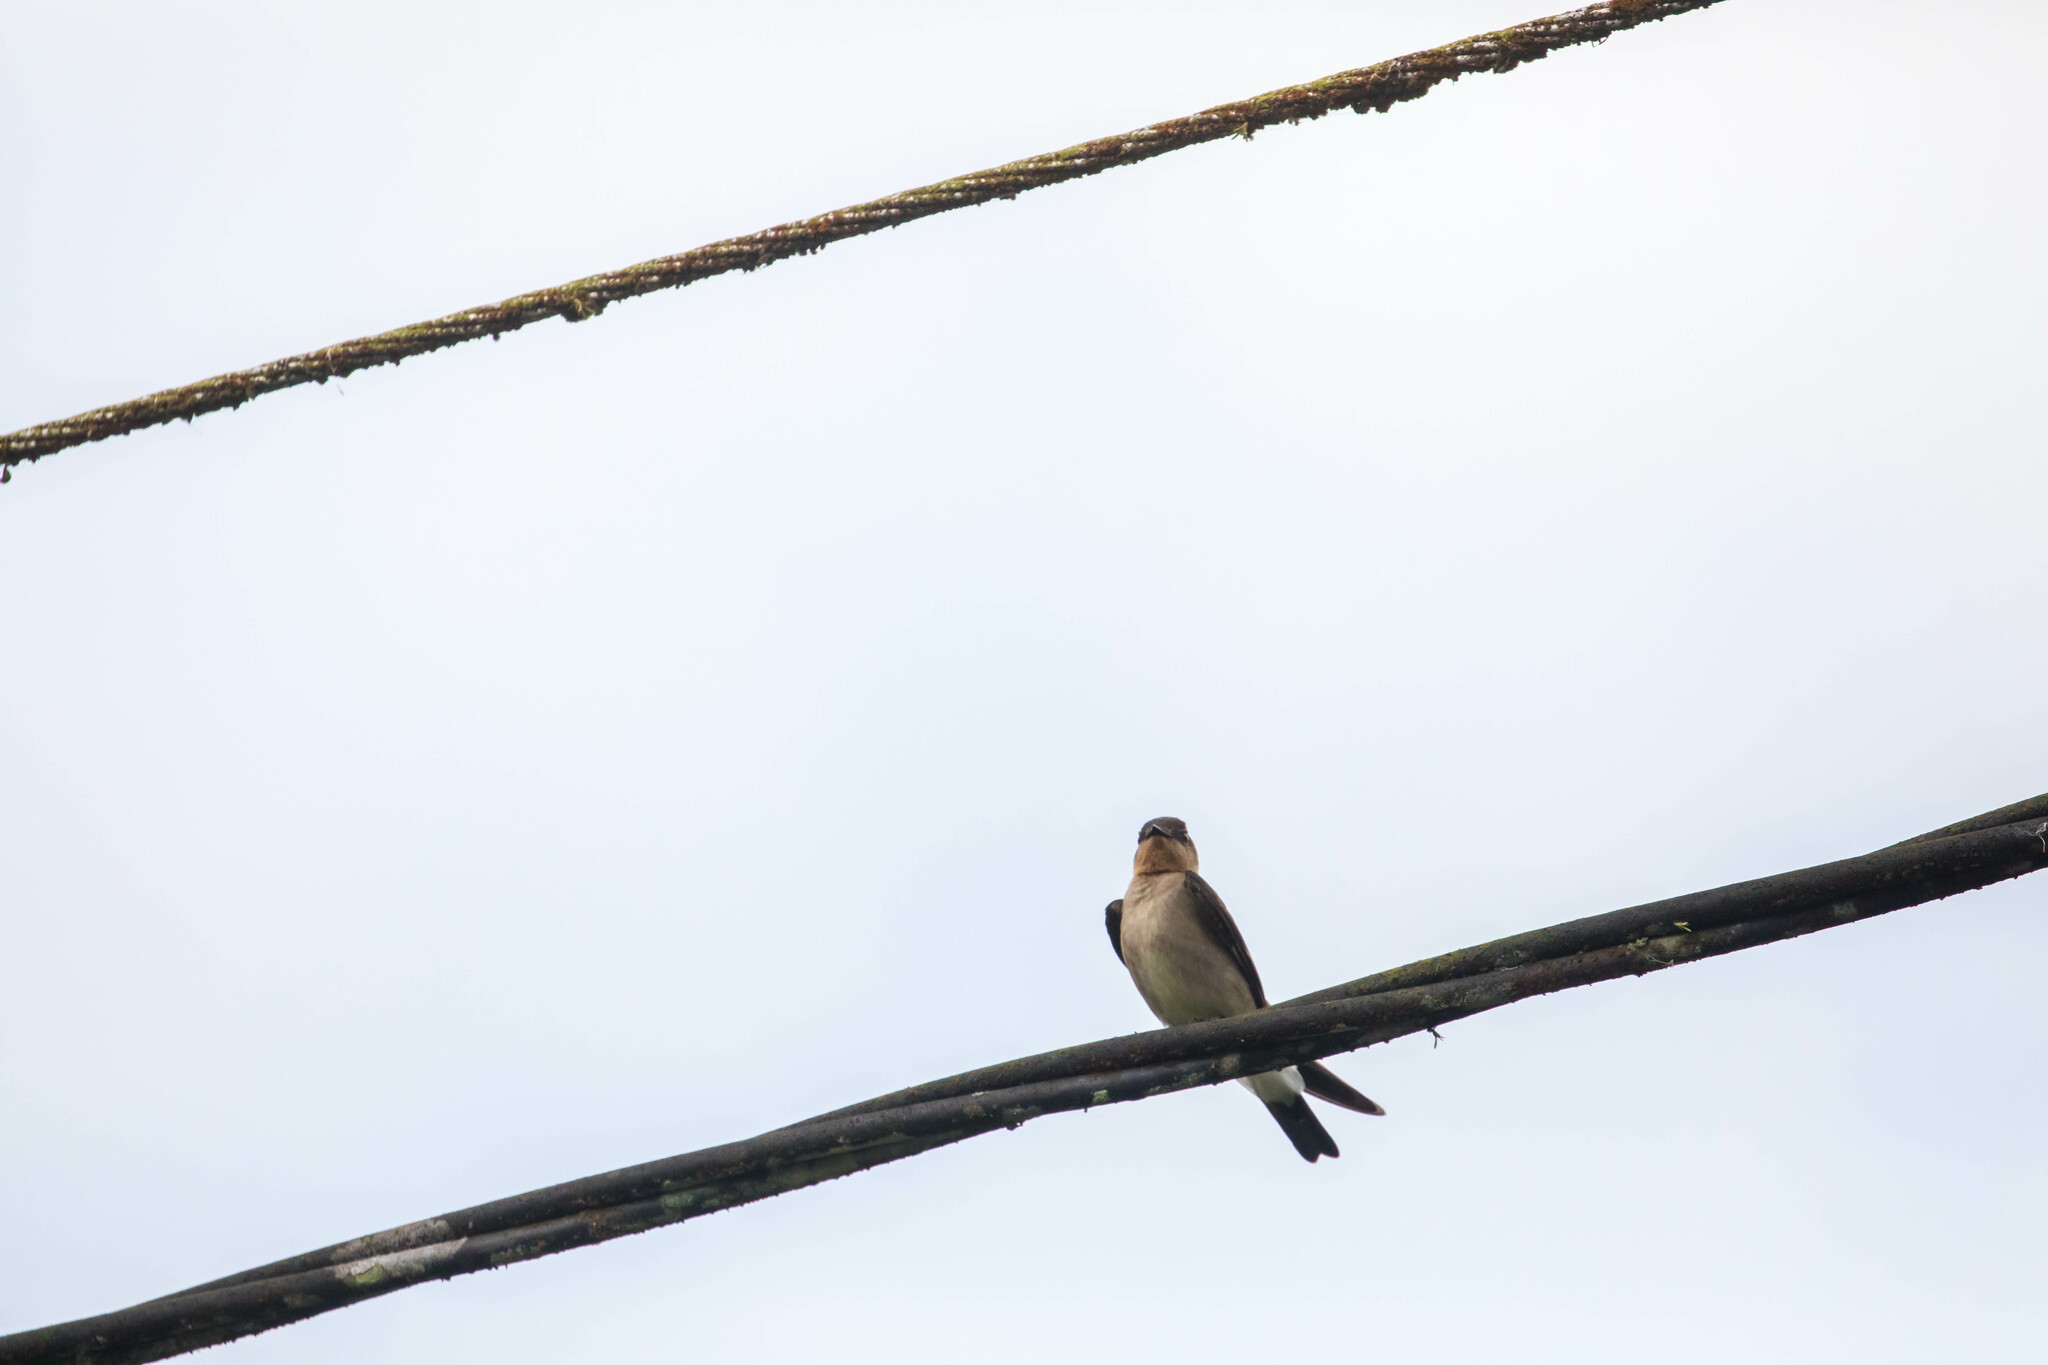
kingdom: Animalia
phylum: Chordata
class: Aves
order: Passeriformes
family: Hirundinidae
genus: Stelgidopteryx
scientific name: Stelgidopteryx ruficollis
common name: Southern rough-winged swallow
